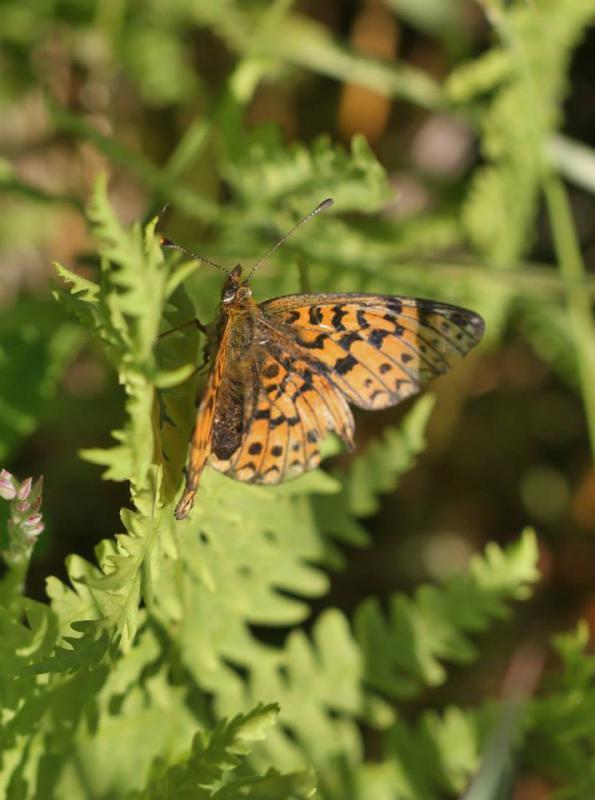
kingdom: Animalia
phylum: Arthropoda
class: Insecta
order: Lepidoptera
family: Nymphalidae
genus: Boloria
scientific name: Boloria selene
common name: Small pearl-bordered fritillary
